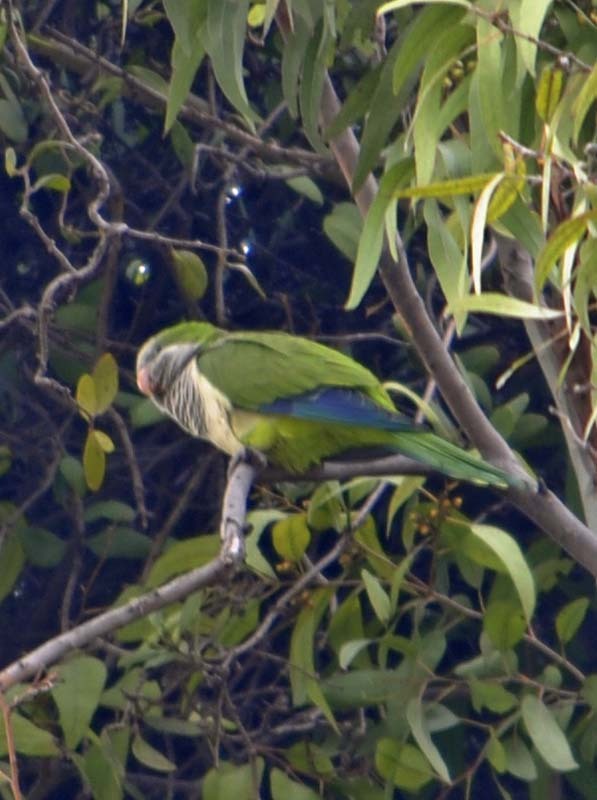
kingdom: Animalia
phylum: Chordata
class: Aves
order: Psittaciformes
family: Psittacidae
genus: Myiopsitta
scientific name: Myiopsitta monachus
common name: Monk parakeet
